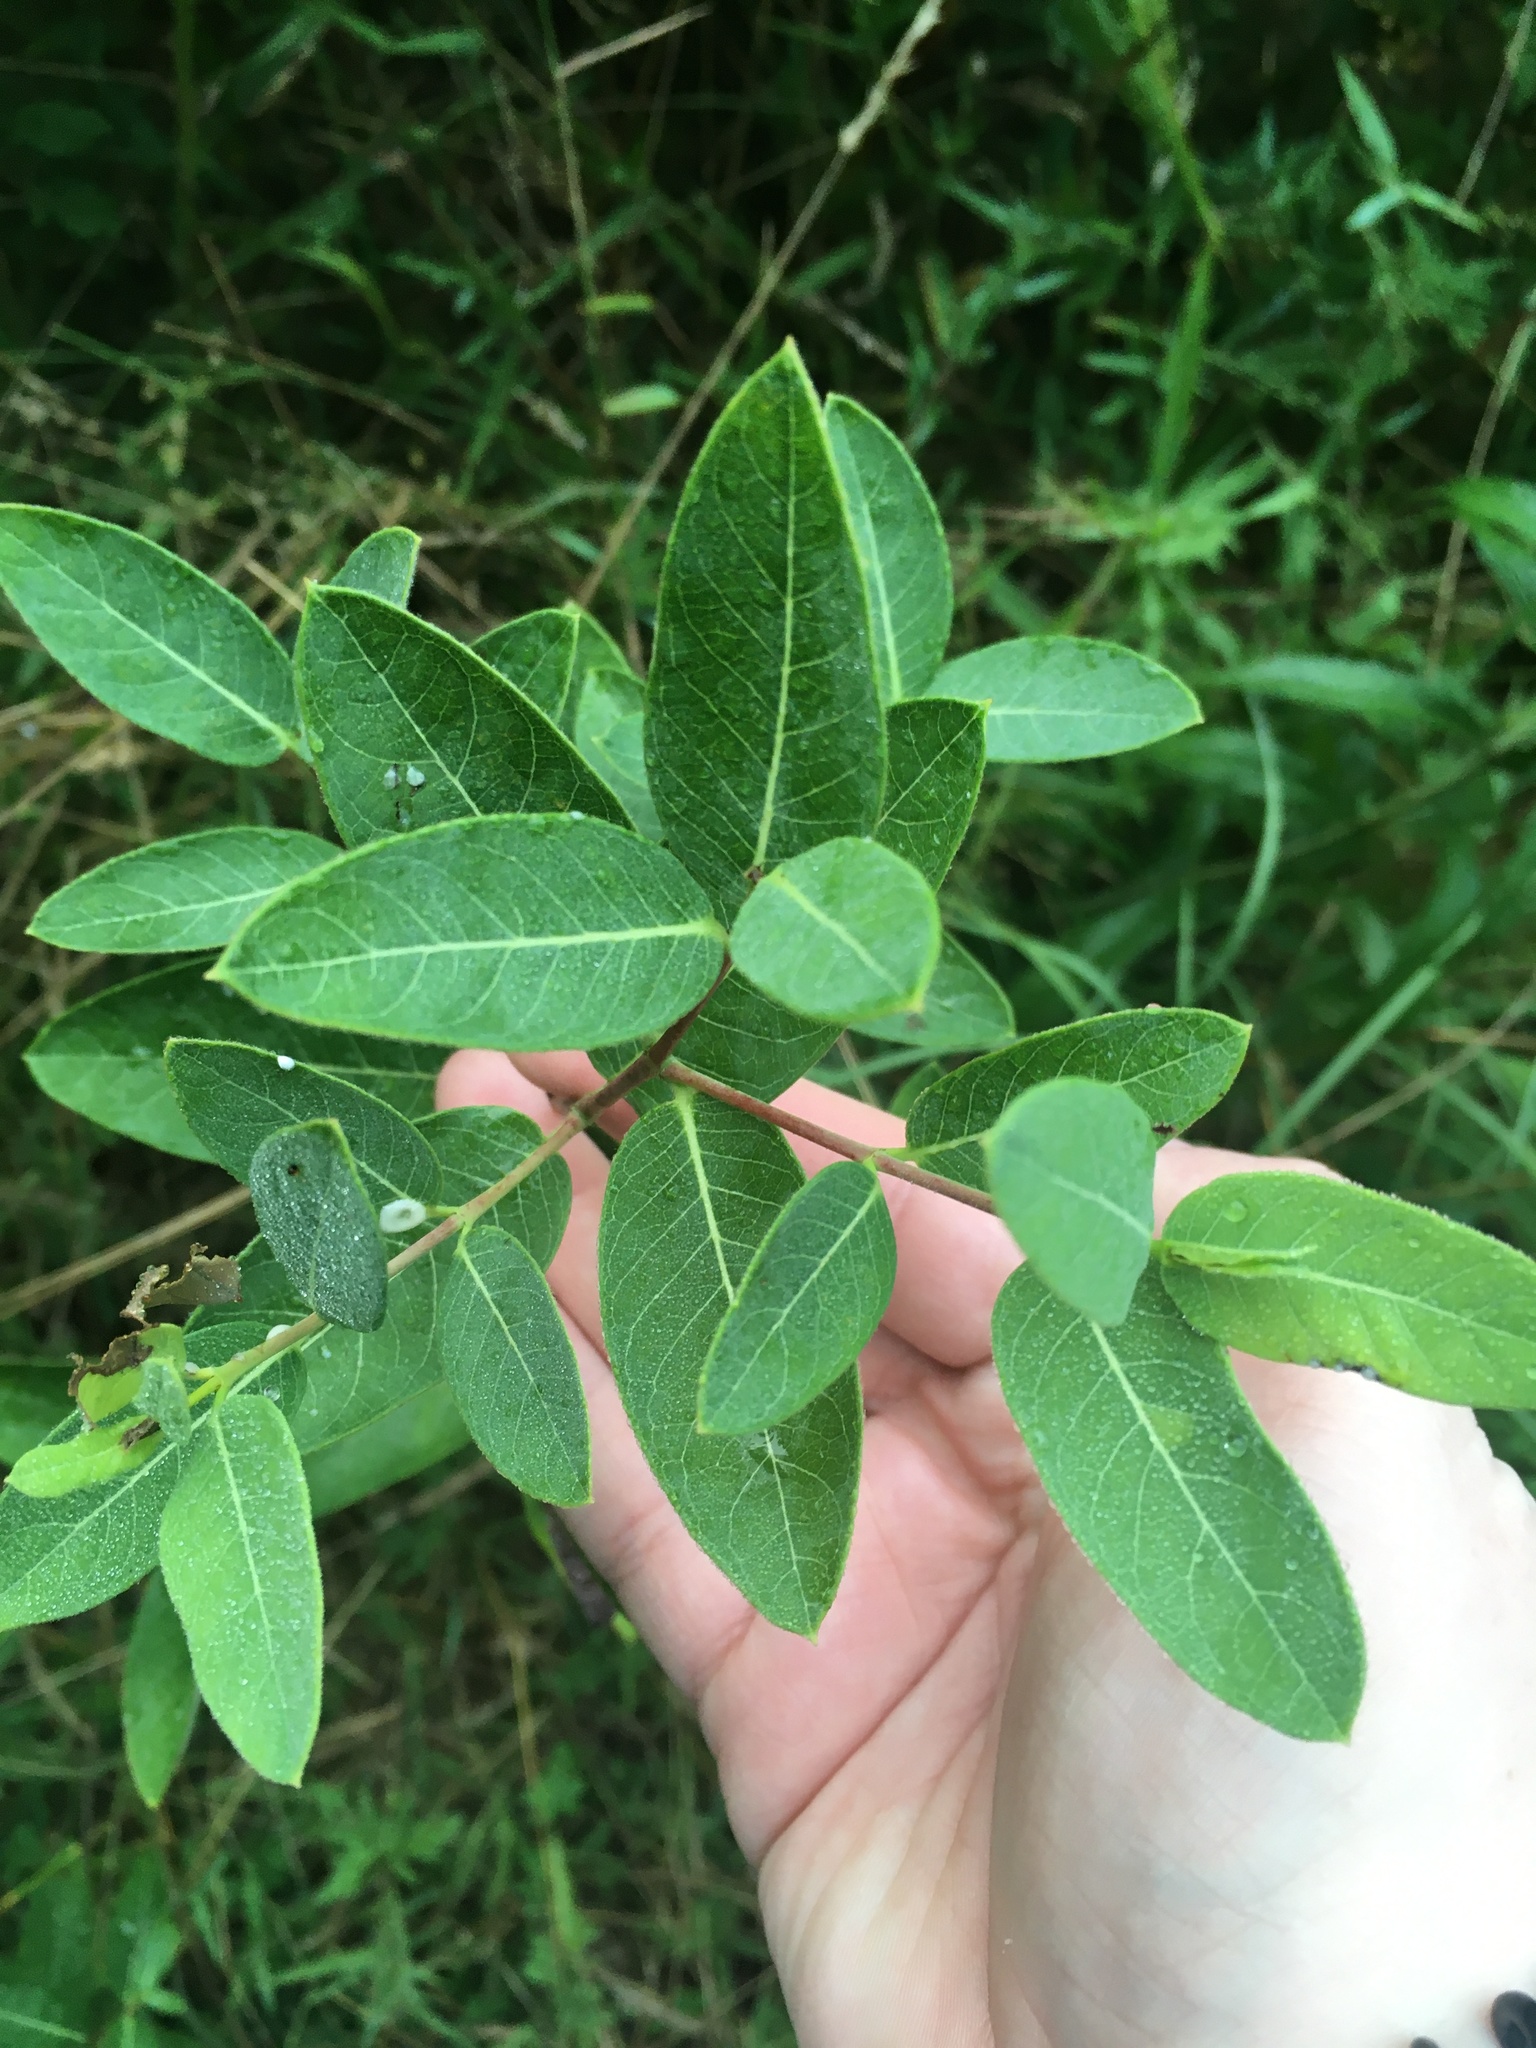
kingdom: Plantae
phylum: Tracheophyta
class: Magnoliopsida
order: Gentianales
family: Apocynaceae
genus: Apocynum
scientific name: Apocynum cannabinum
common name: Hemp dogbane
